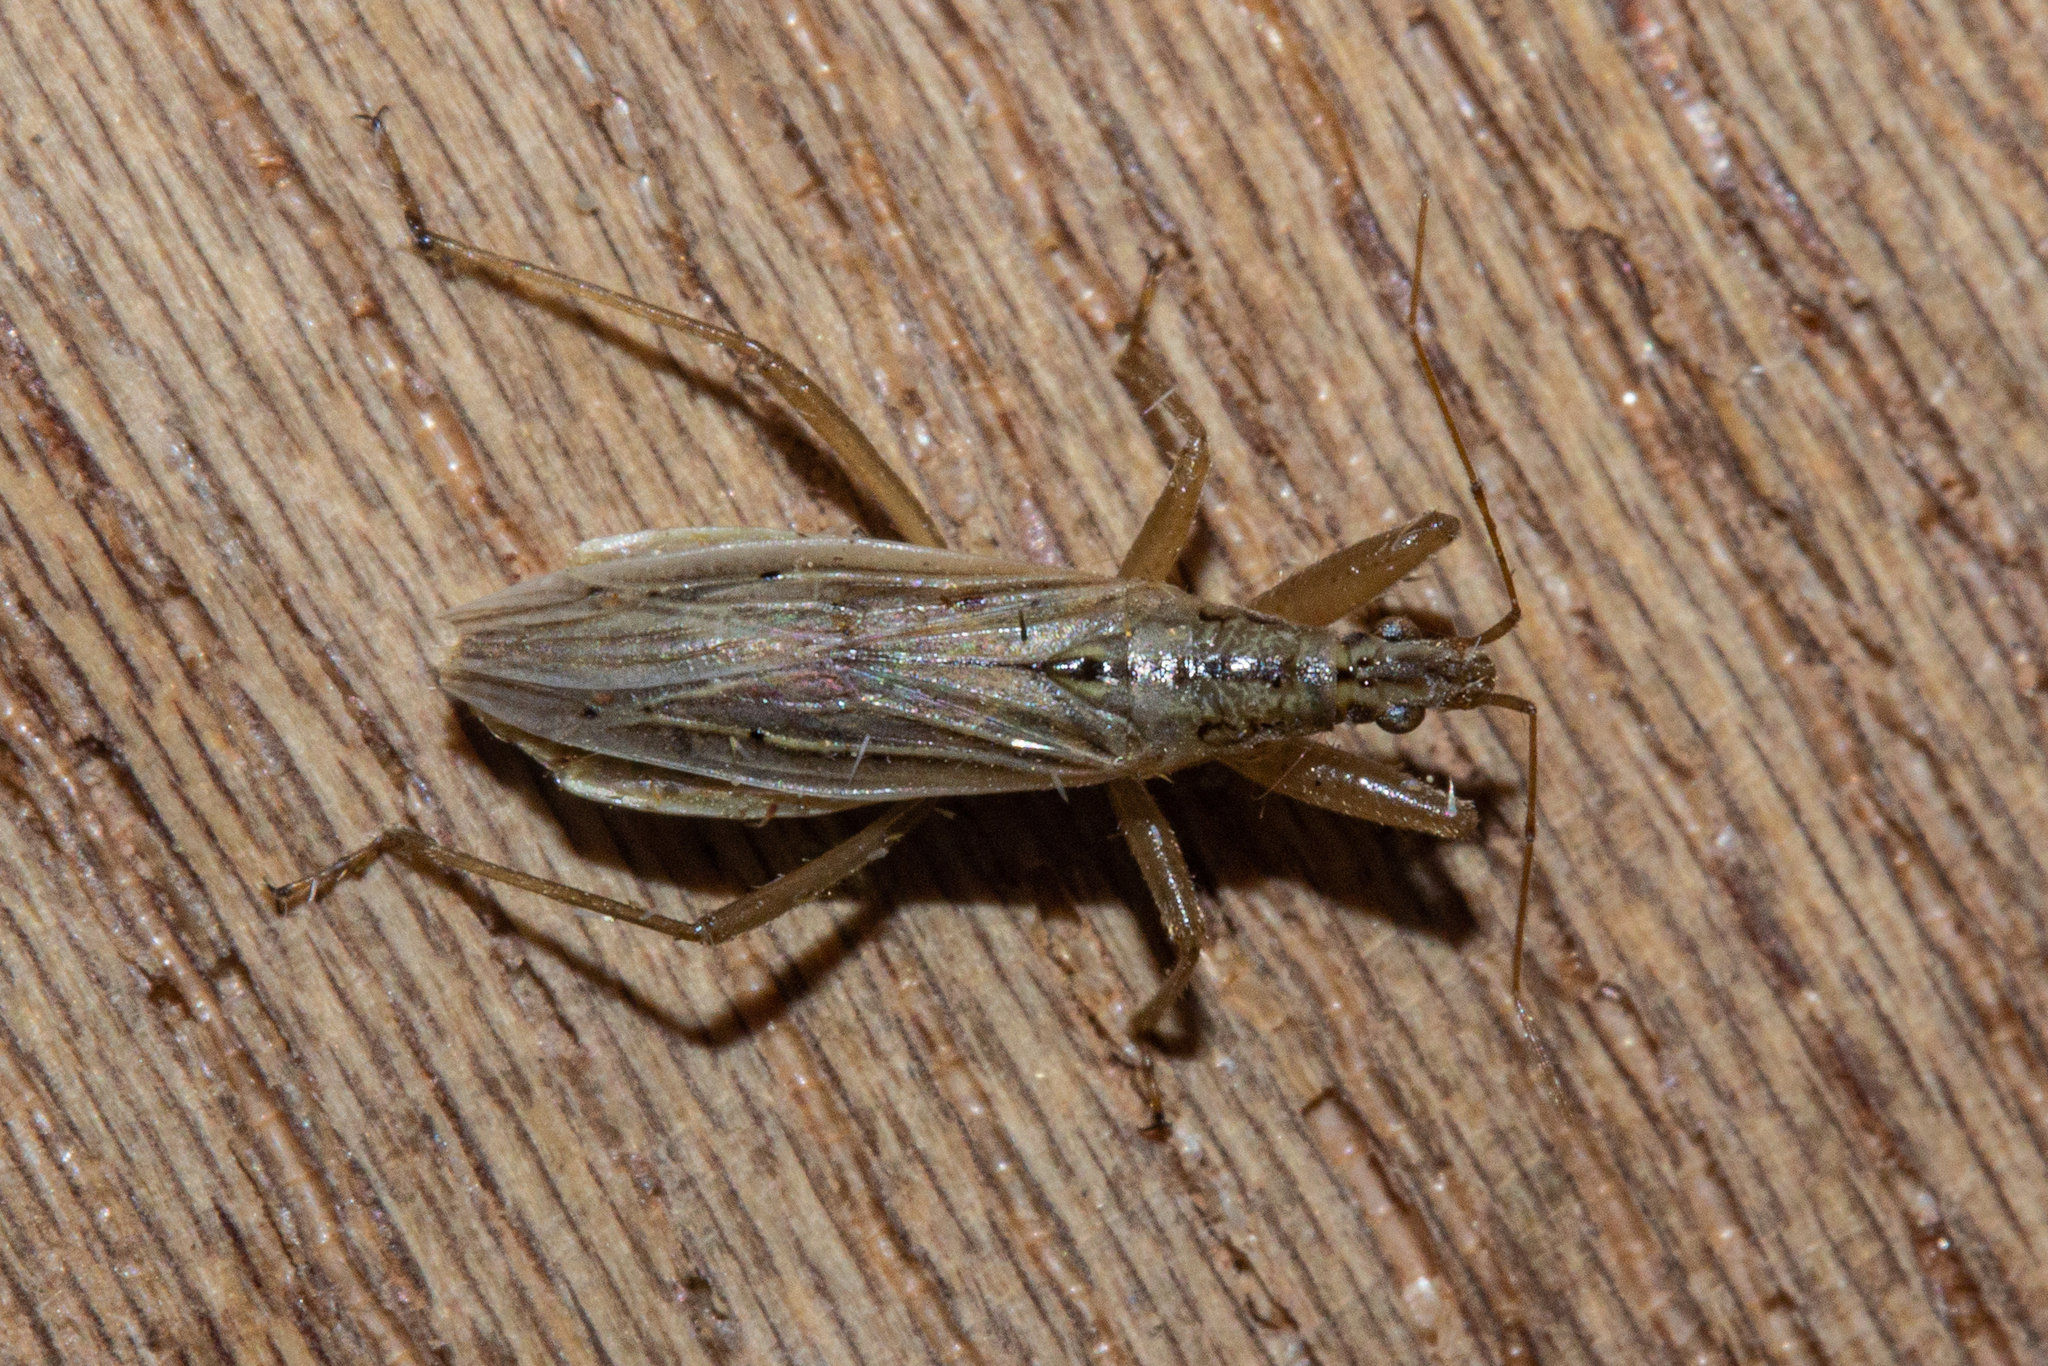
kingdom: Animalia
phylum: Arthropoda
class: Insecta
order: Hemiptera
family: Nabidae
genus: Nabis
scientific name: Nabis
